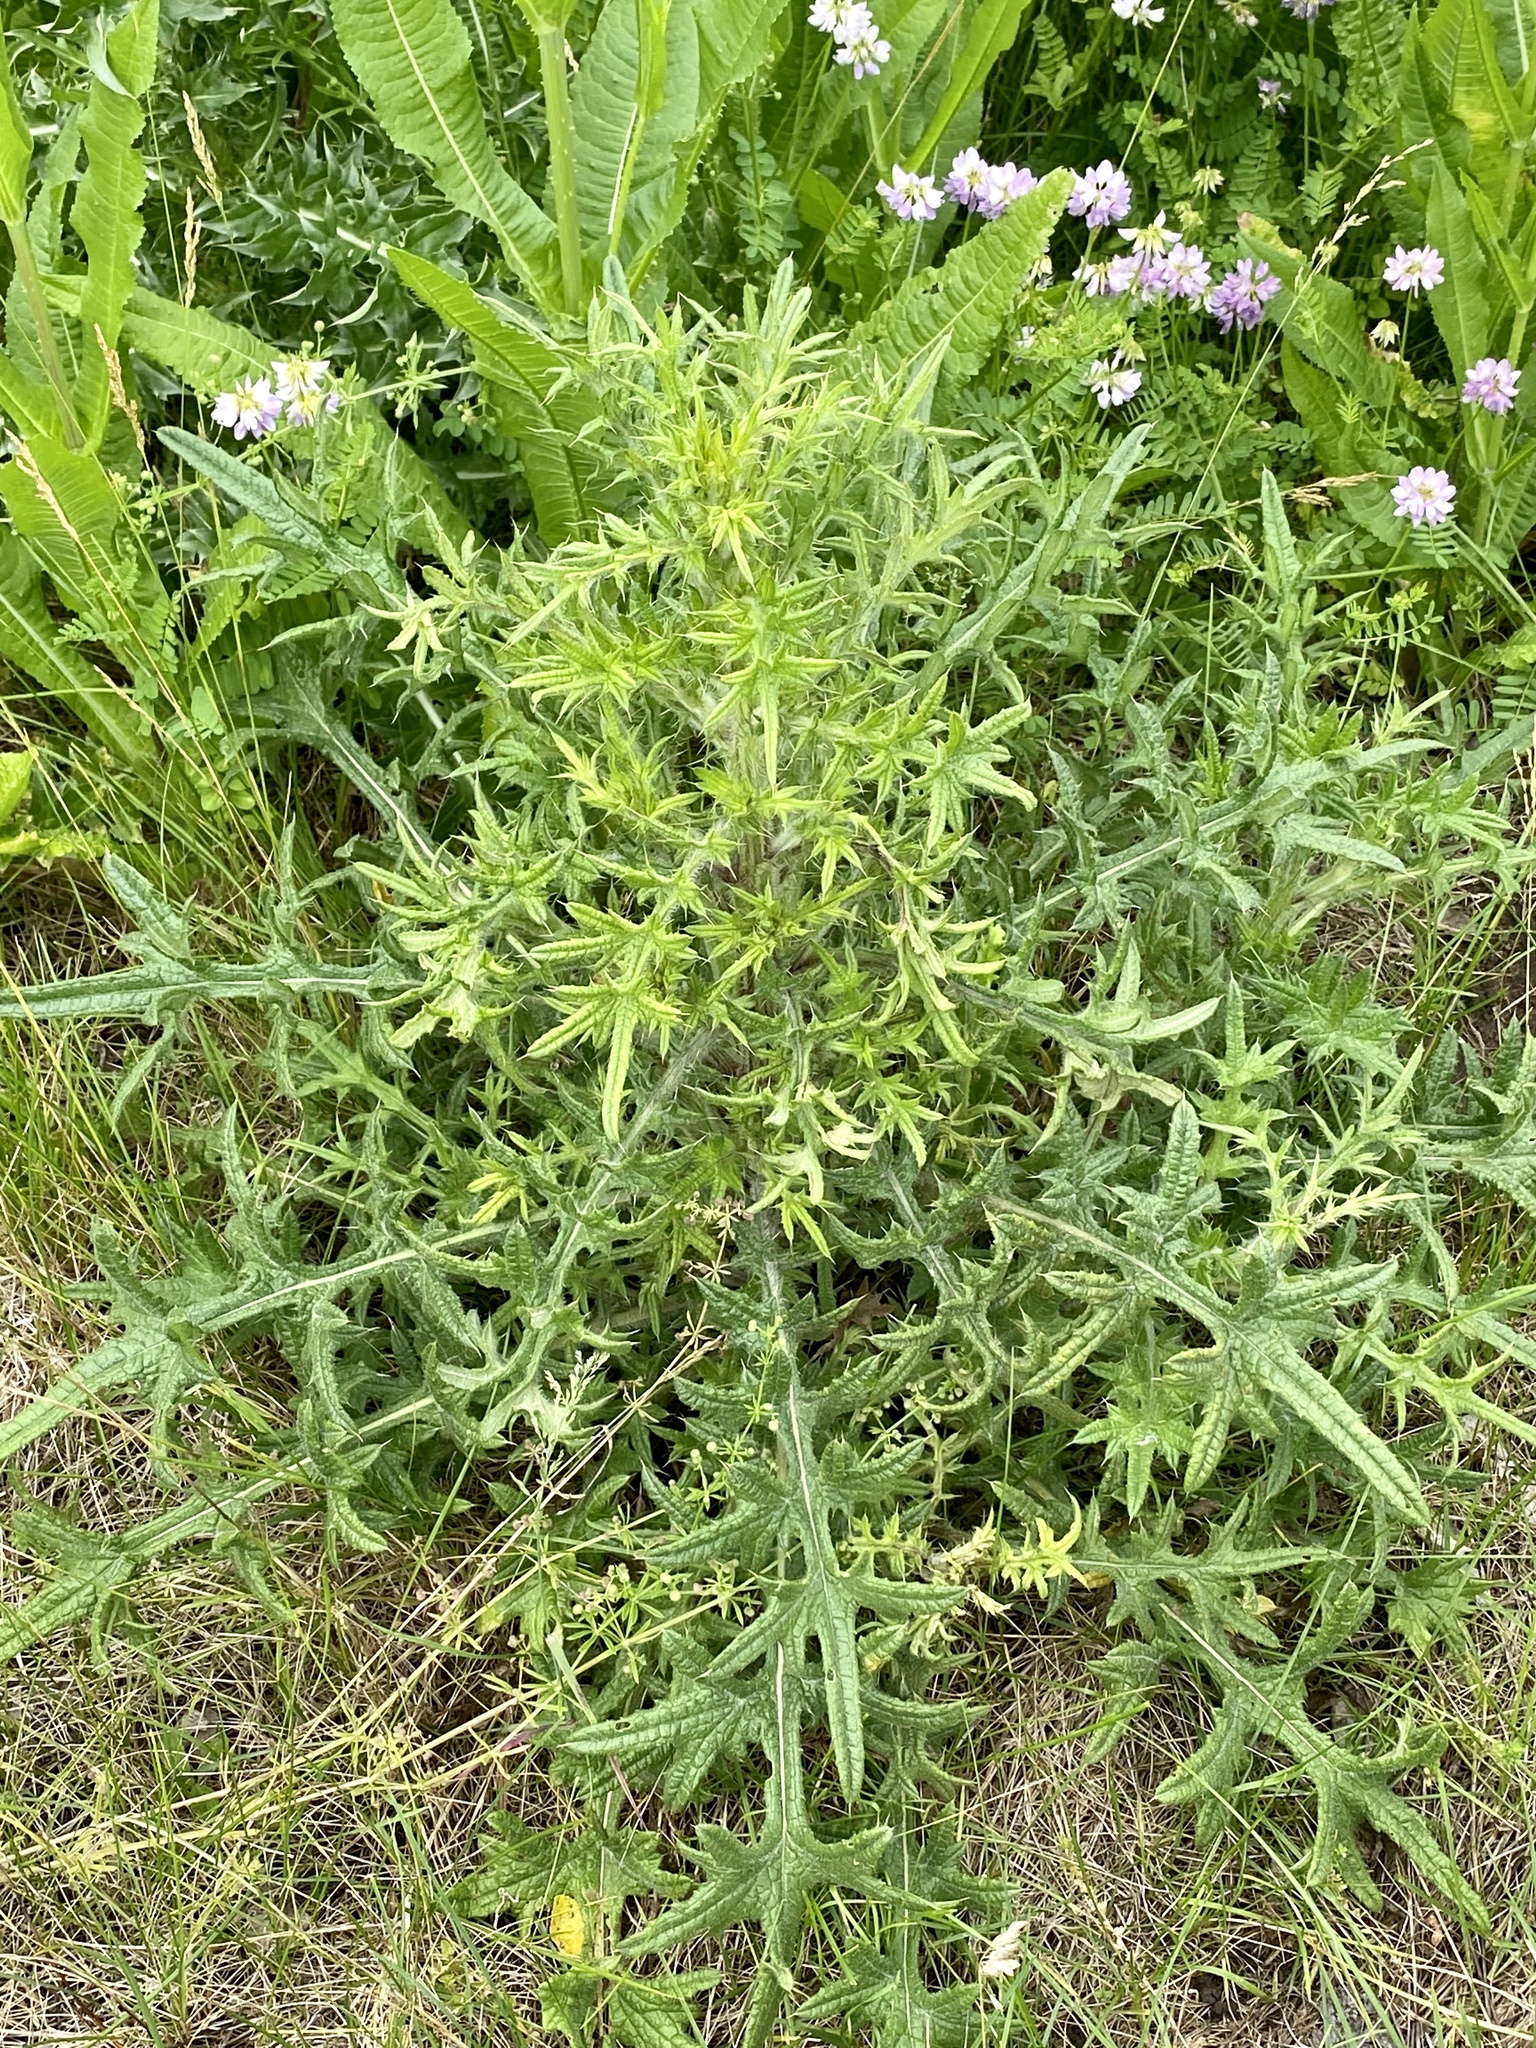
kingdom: Plantae
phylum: Tracheophyta
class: Magnoliopsida
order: Asterales
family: Asteraceae
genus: Cirsium
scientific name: Cirsium vulgare
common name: Bull thistle
